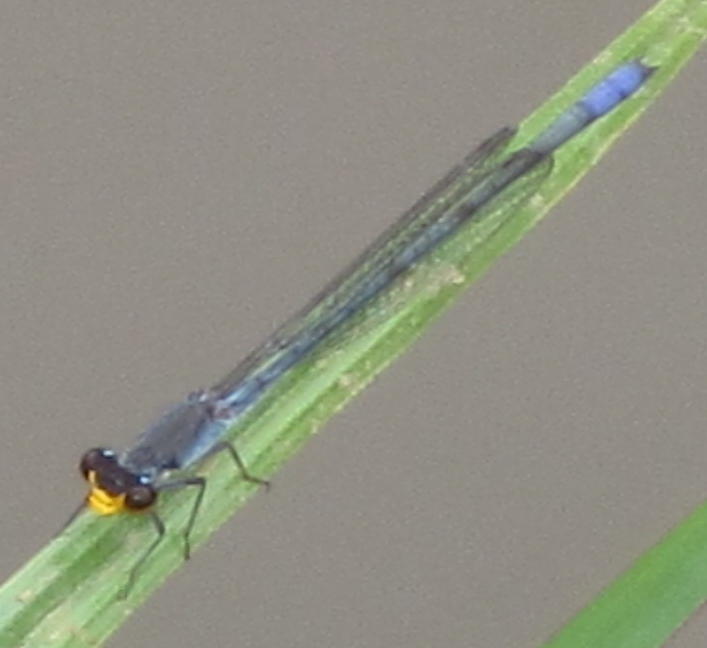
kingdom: Animalia
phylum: Arthropoda
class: Insecta
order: Odonata
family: Coenagrionidae
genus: Pseudagrion
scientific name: Pseudagrion citricola
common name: Yellow-faced sprite
